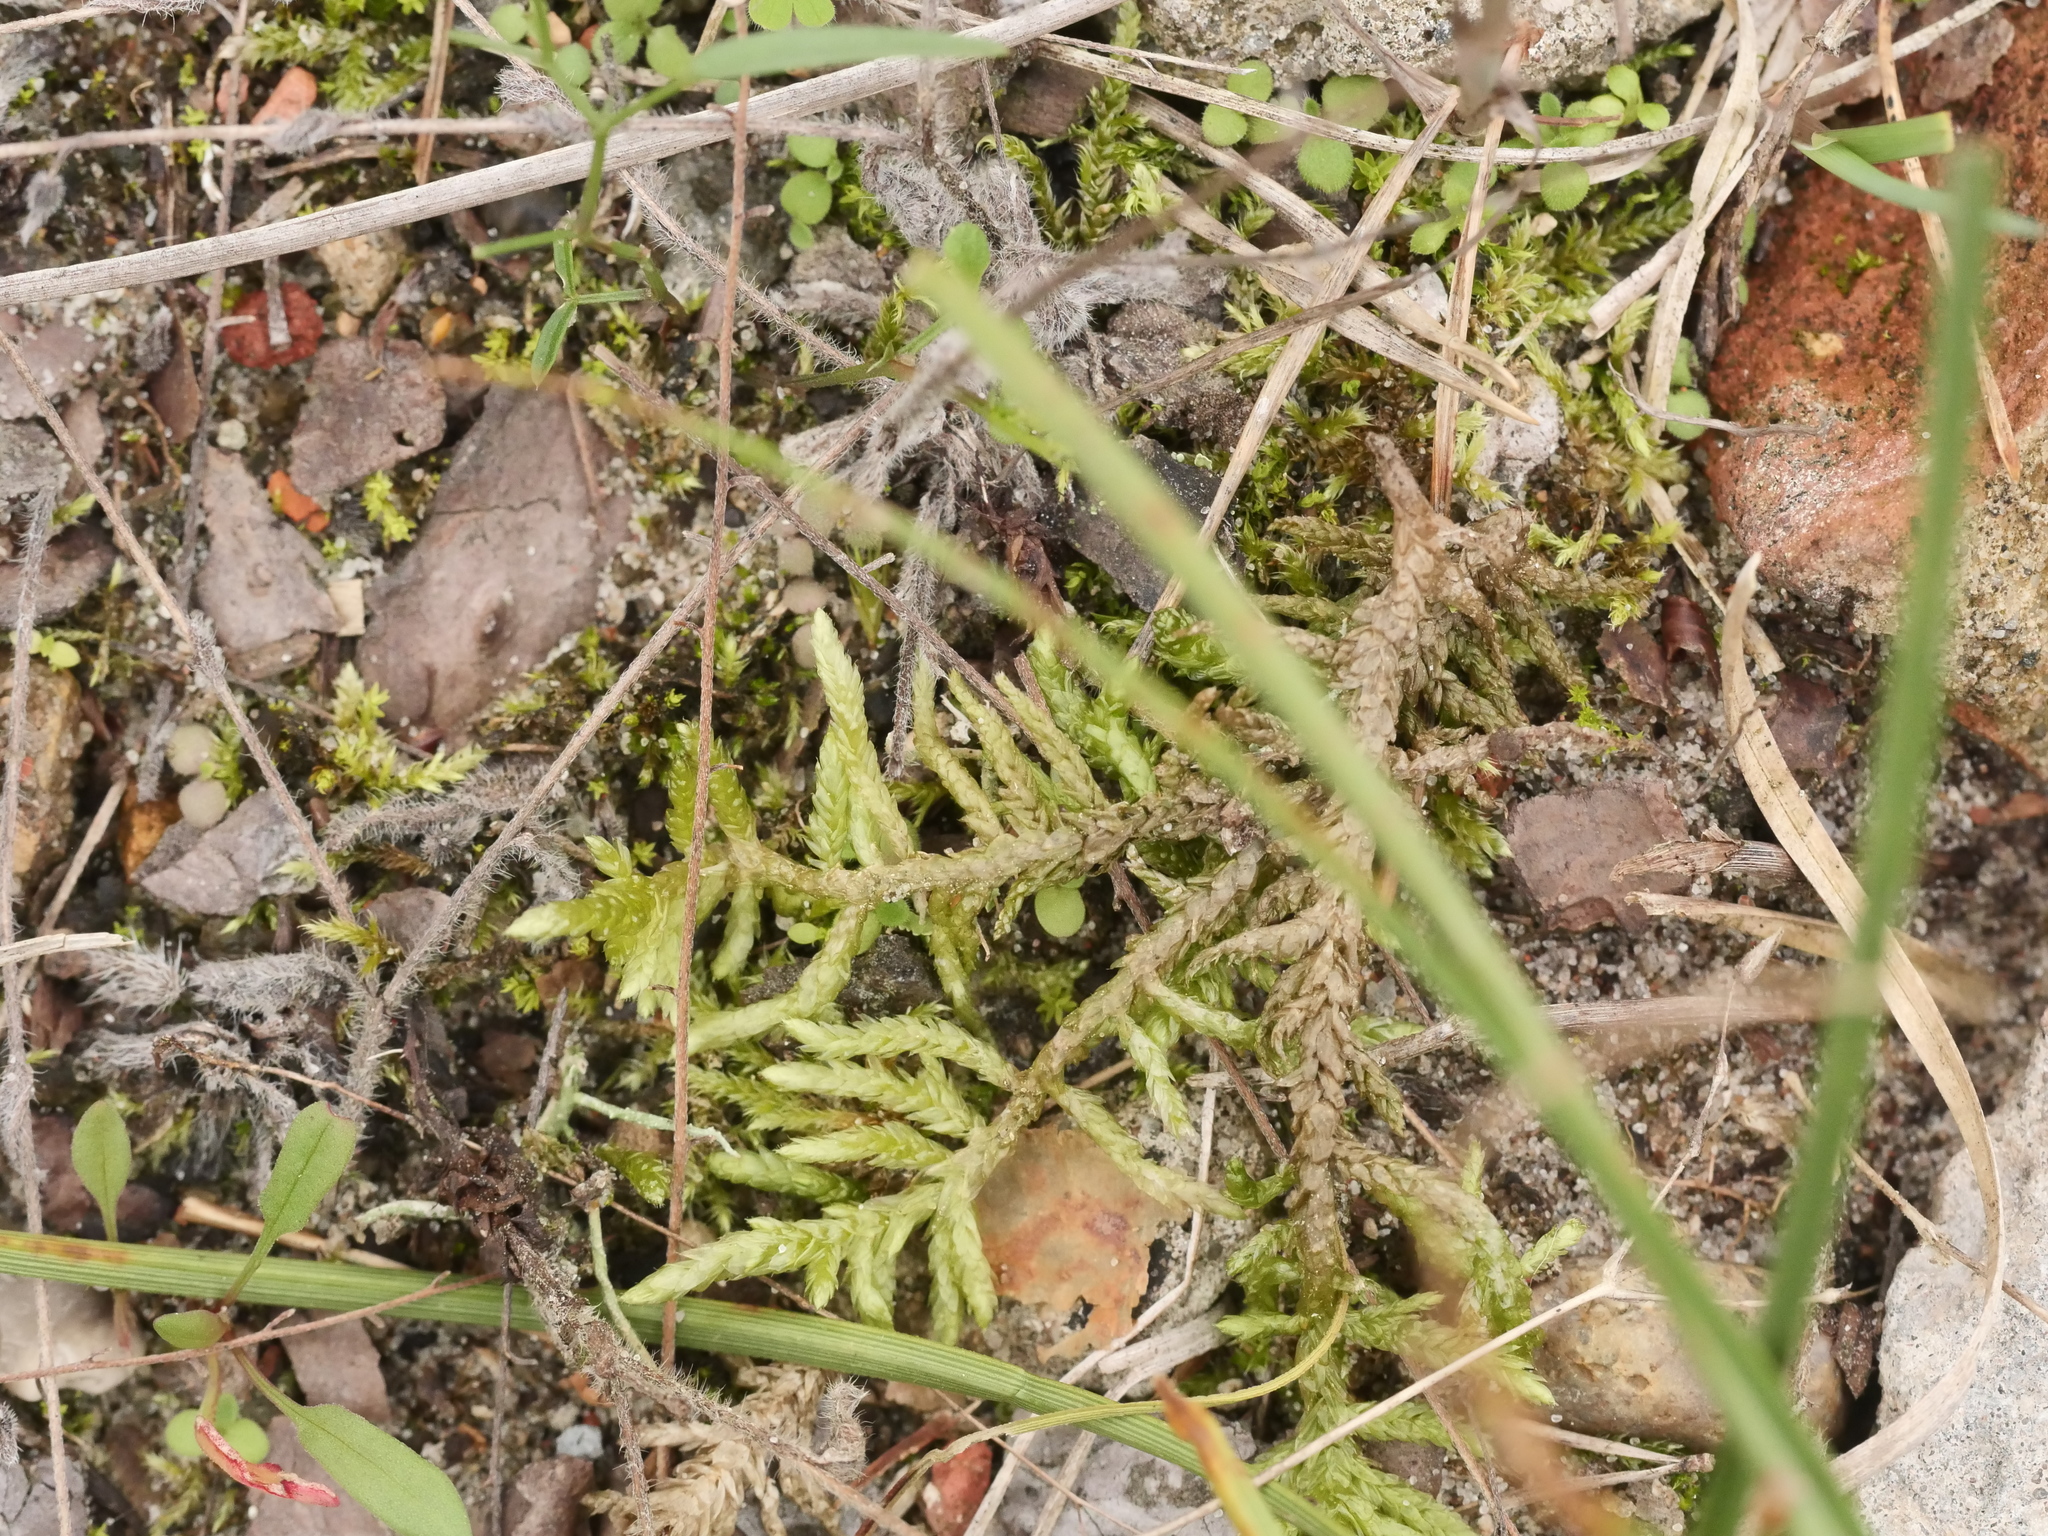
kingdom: Plantae
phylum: Bryophyta
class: Bryopsida
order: Hypnales
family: Brachytheciaceae
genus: Pseudoscleropodium
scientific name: Pseudoscleropodium purum
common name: Neat feather-moss
